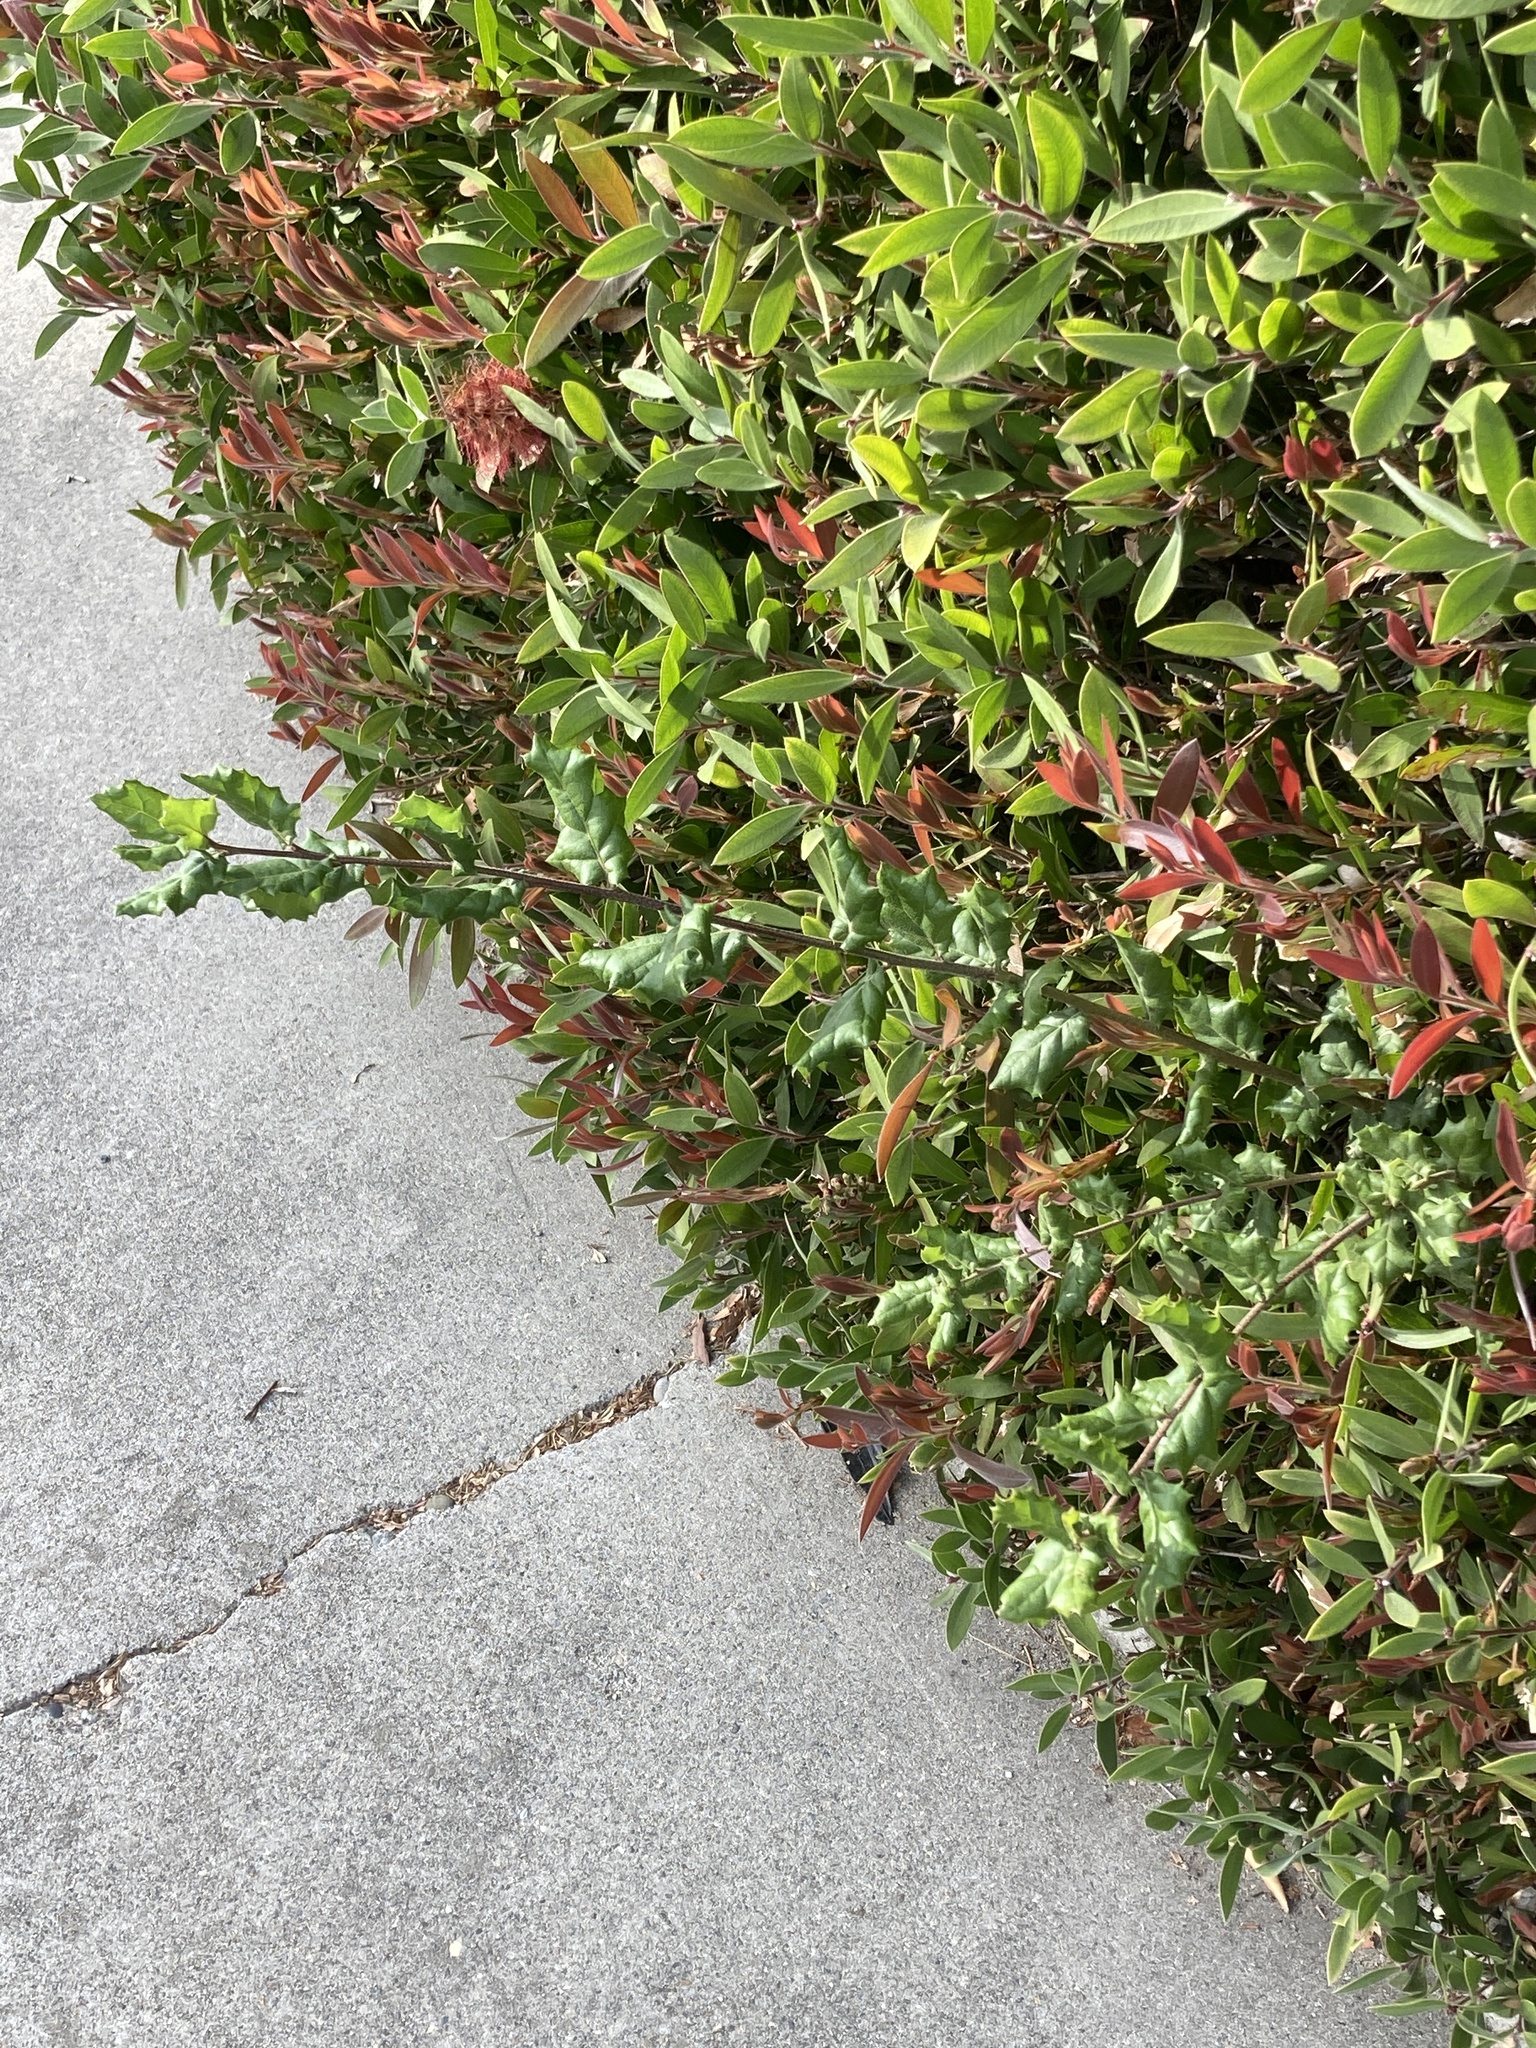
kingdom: Plantae
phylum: Tracheophyta
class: Magnoliopsida
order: Fagales
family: Fagaceae
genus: Quercus
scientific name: Quercus agrifolia
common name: California live oak
